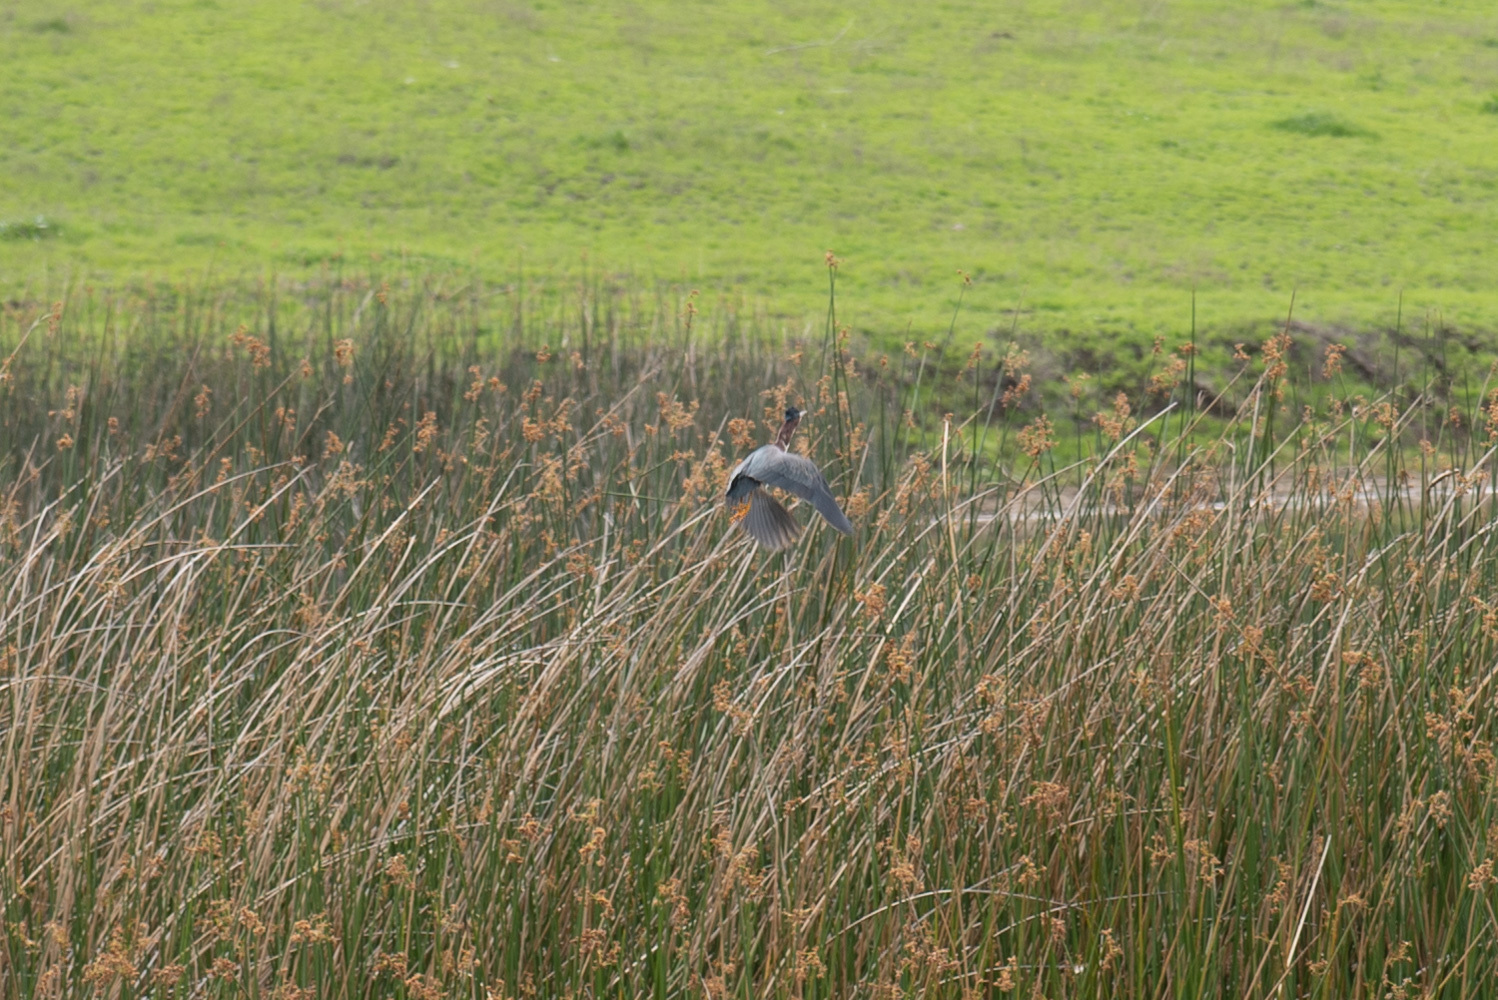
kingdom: Animalia
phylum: Chordata
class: Aves
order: Pelecaniformes
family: Ardeidae
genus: Butorides
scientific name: Butorides virescens
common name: Green heron
